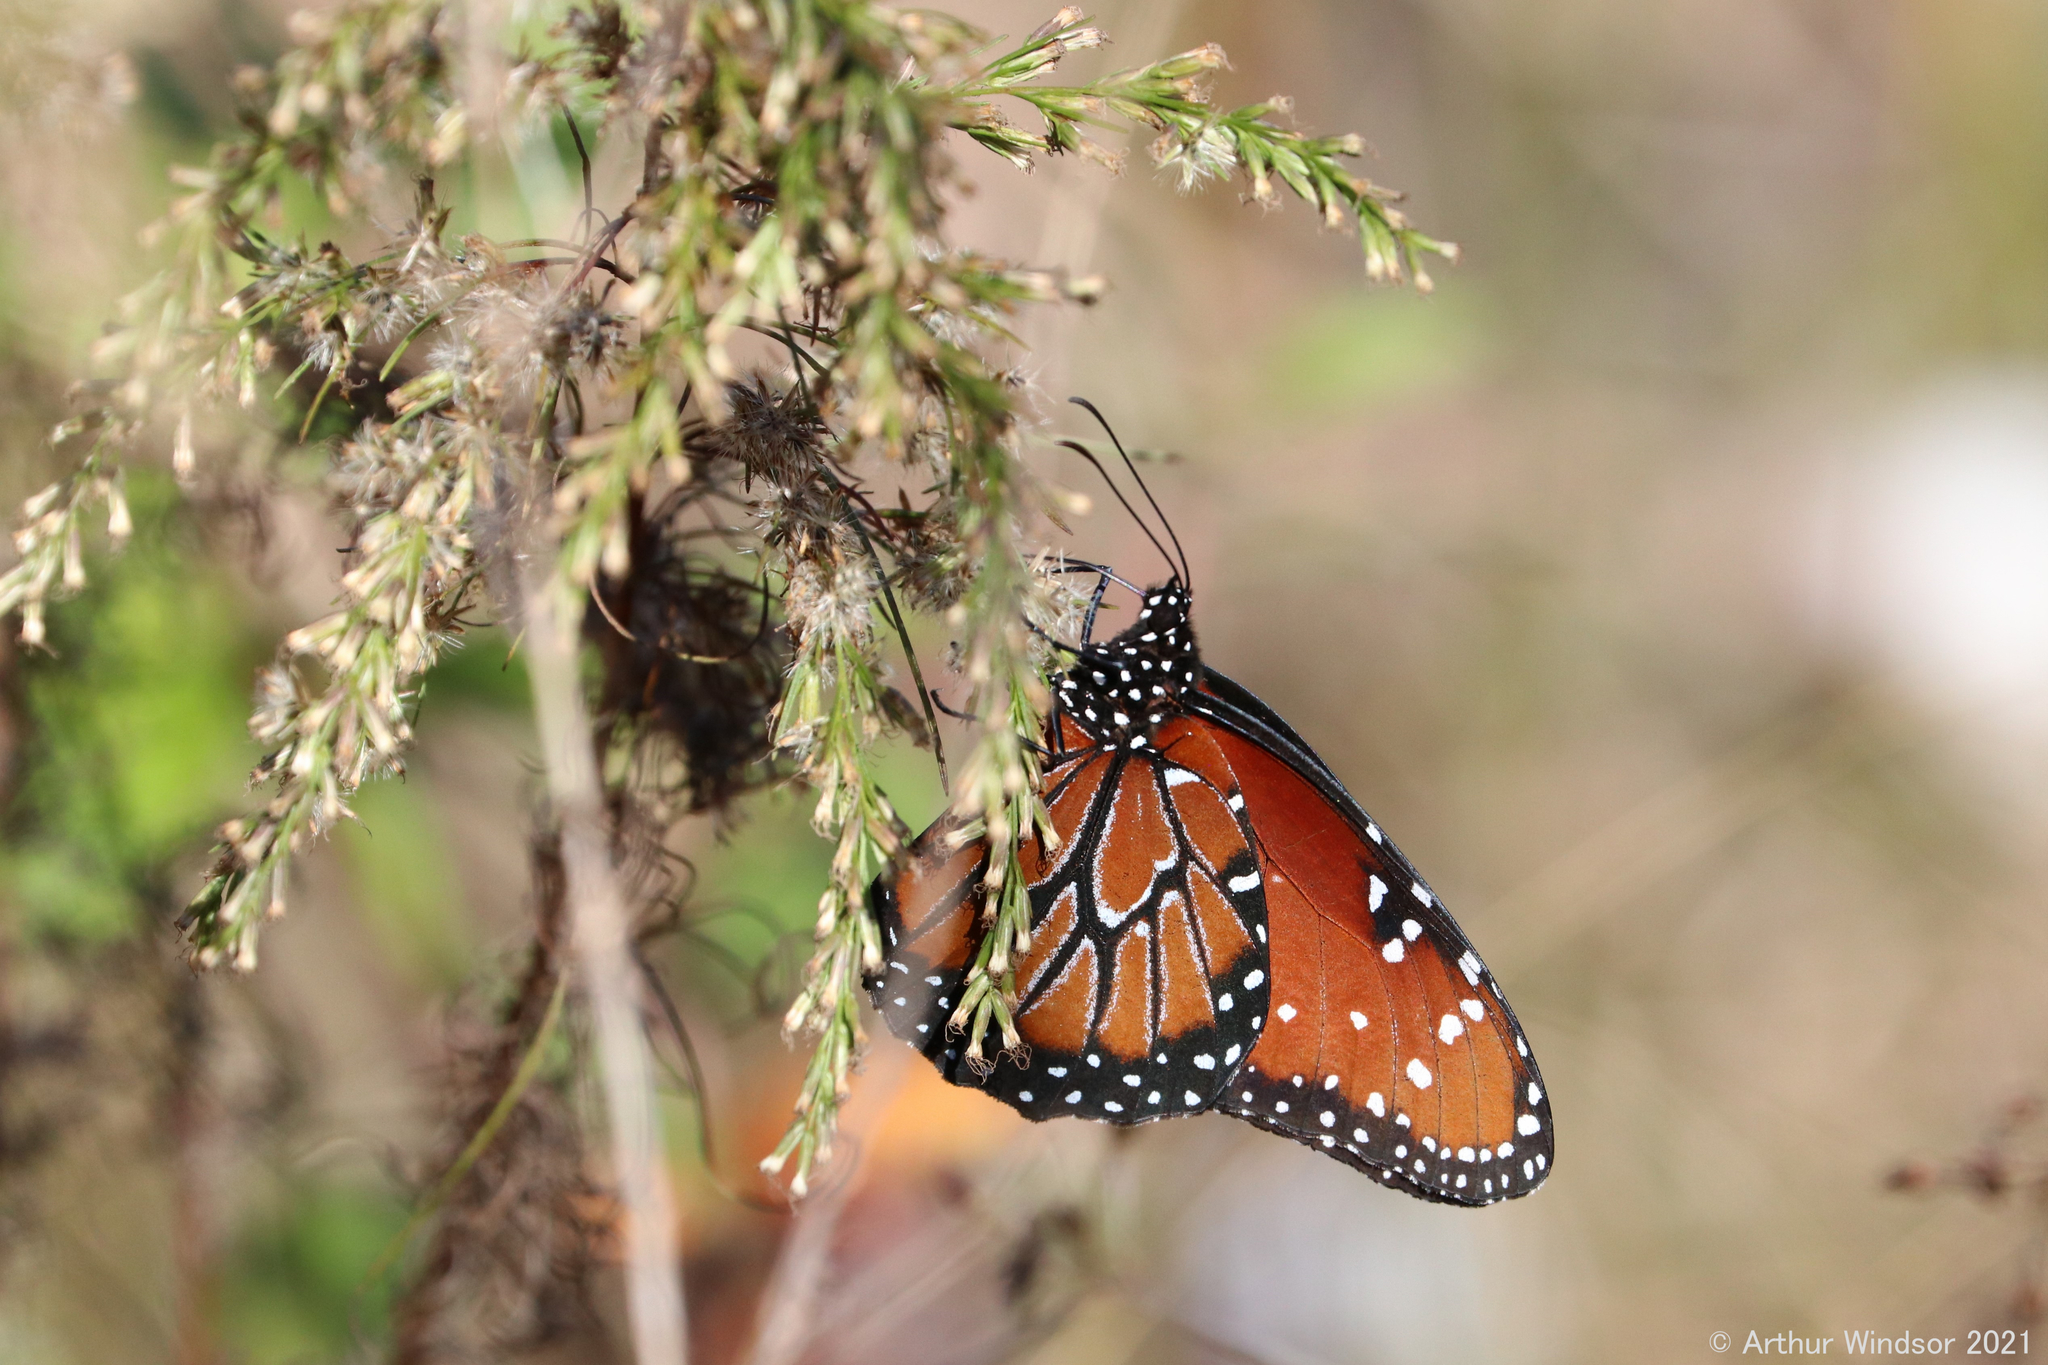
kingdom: Animalia
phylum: Arthropoda
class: Insecta
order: Lepidoptera
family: Nymphalidae
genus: Danaus
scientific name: Danaus gilippus
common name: Queen
